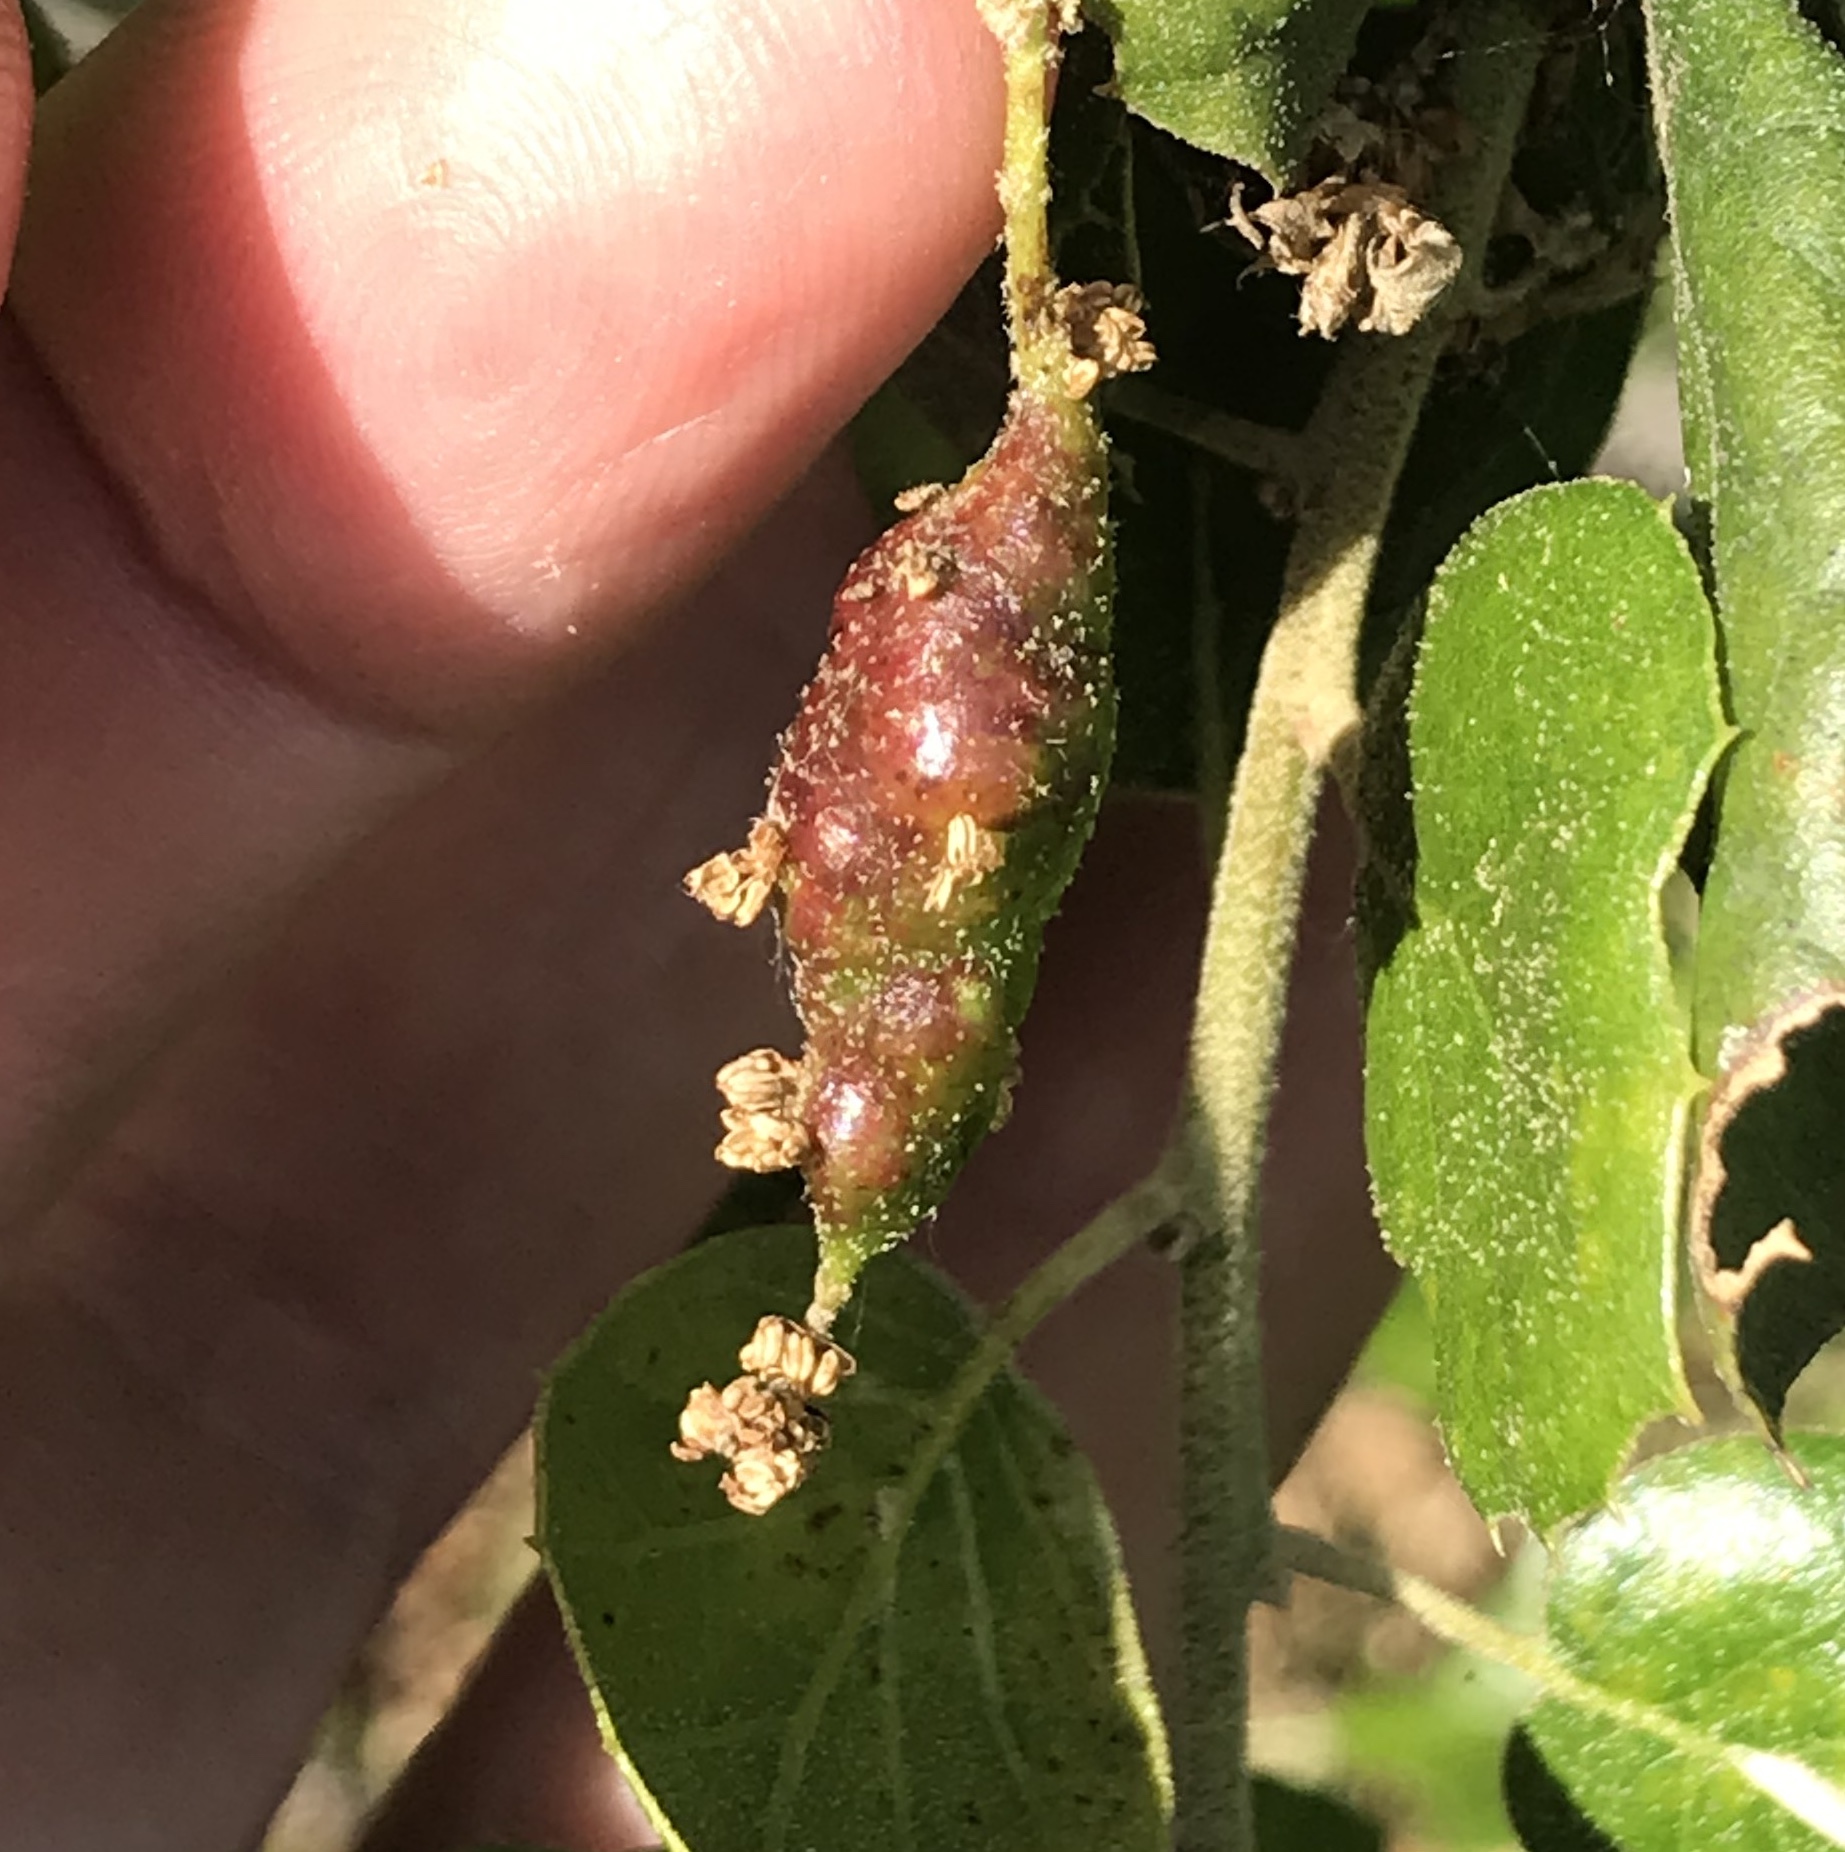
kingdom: Animalia
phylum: Arthropoda
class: Insecta
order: Hymenoptera
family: Cynipidae
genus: Callirhytis
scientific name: Callirhytis
